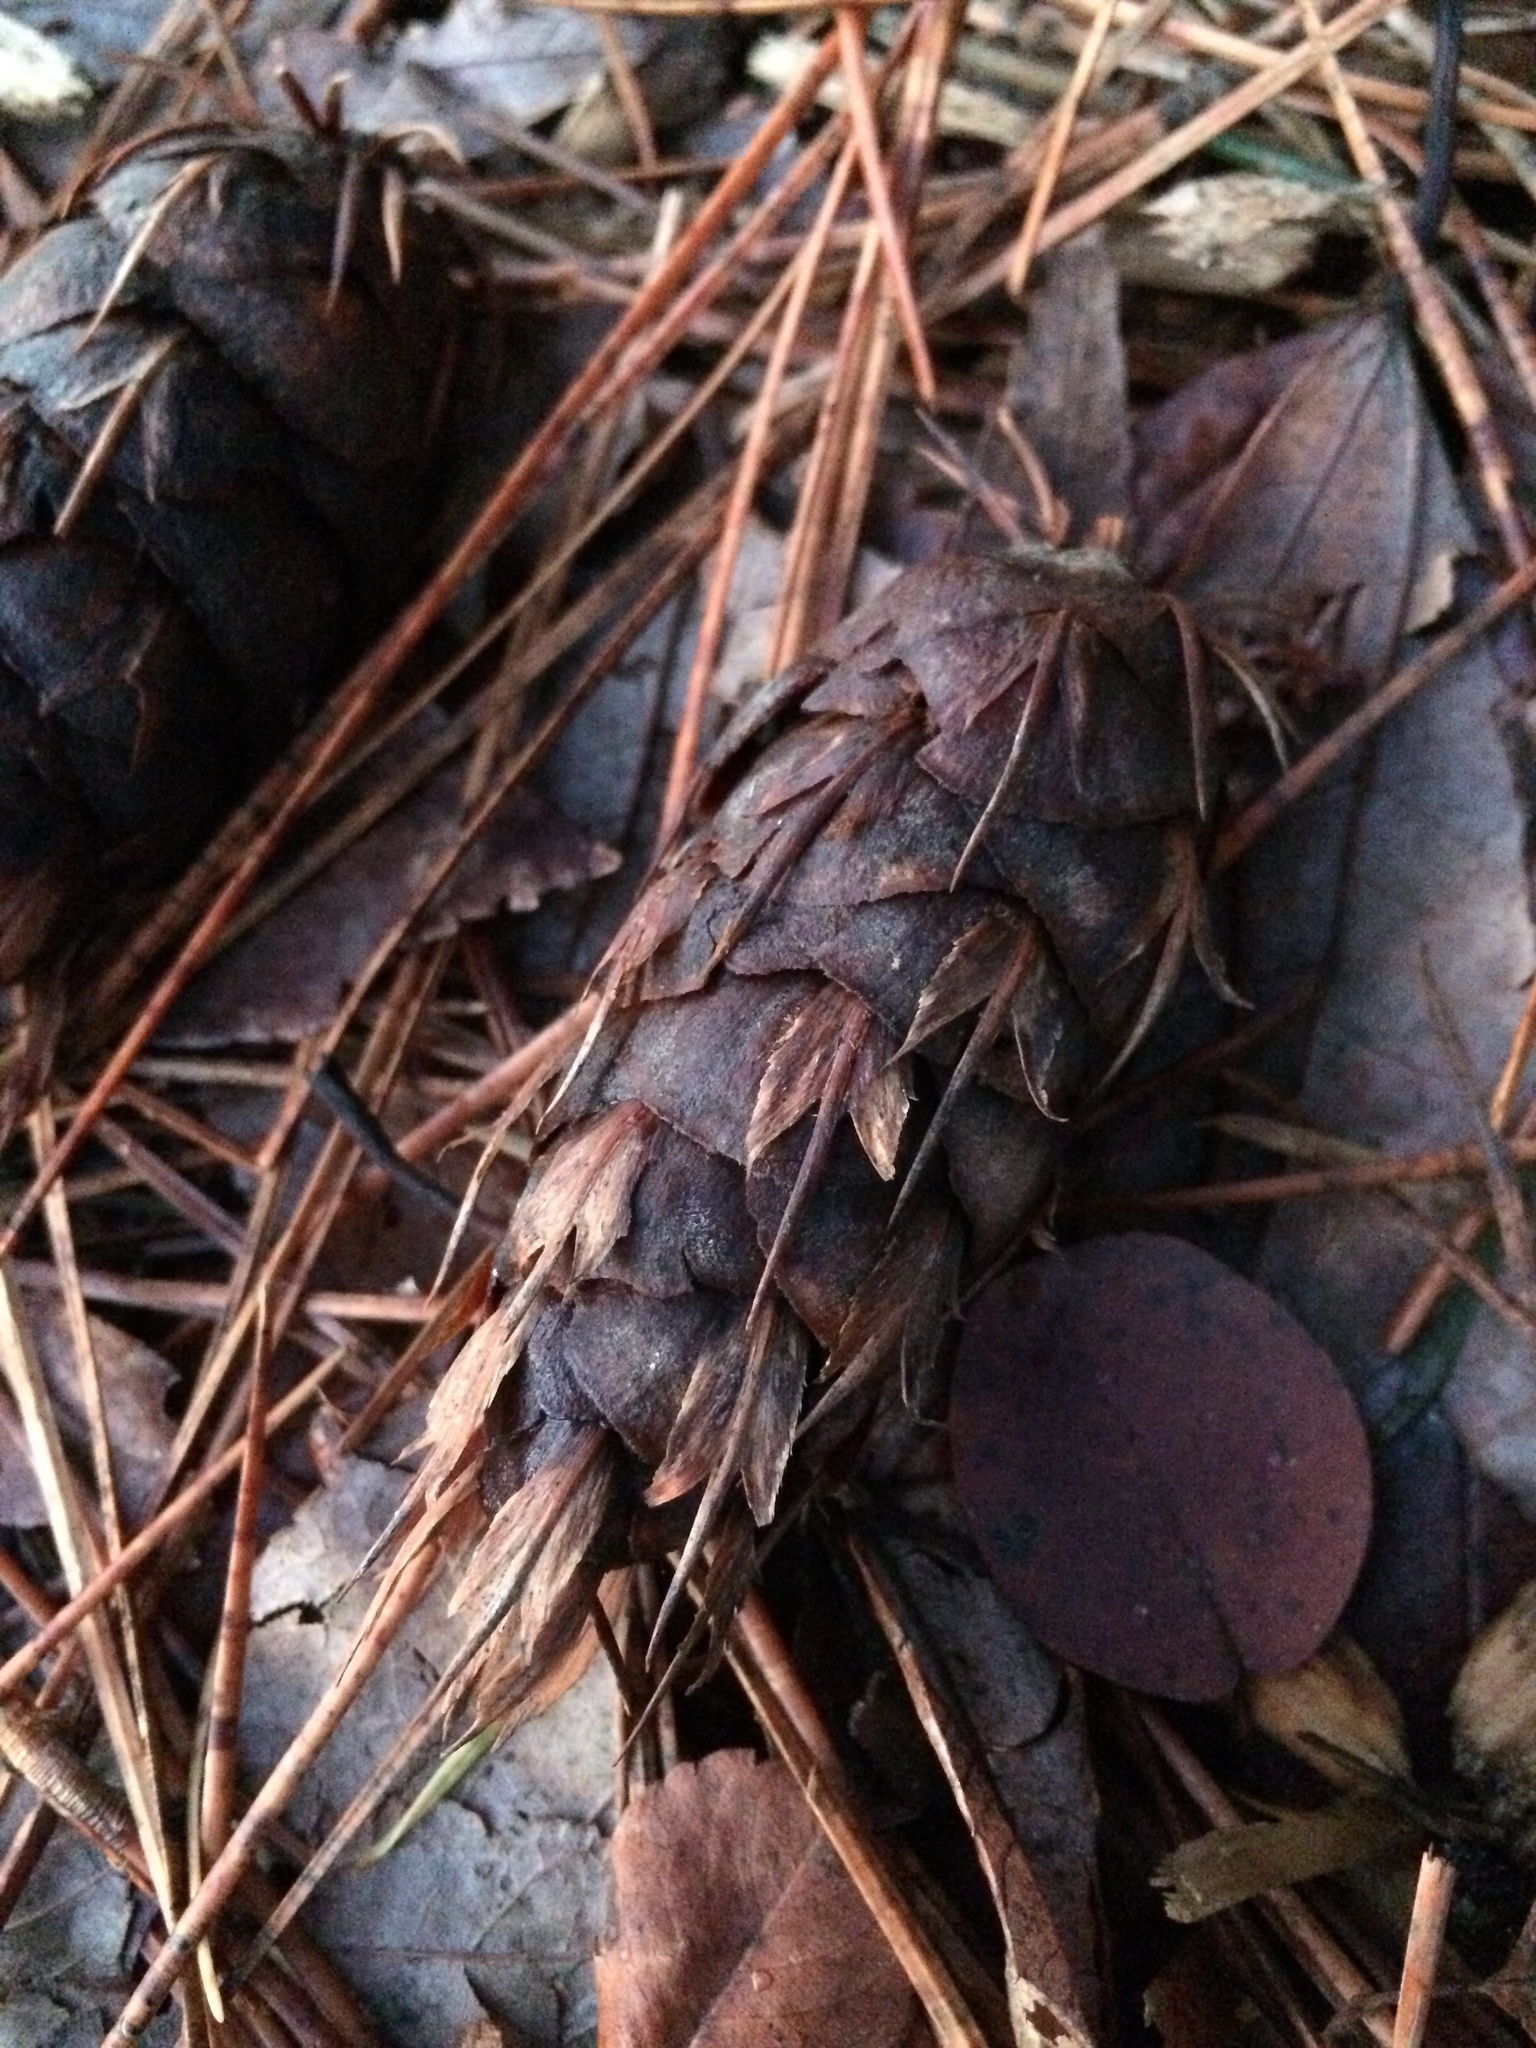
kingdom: Plantae
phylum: Tracheophyta
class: Pinopsida
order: Pinales
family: Pinaceae
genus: Pseudotsuga
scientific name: Pseudotsuga menziesii
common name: Douglas fir
